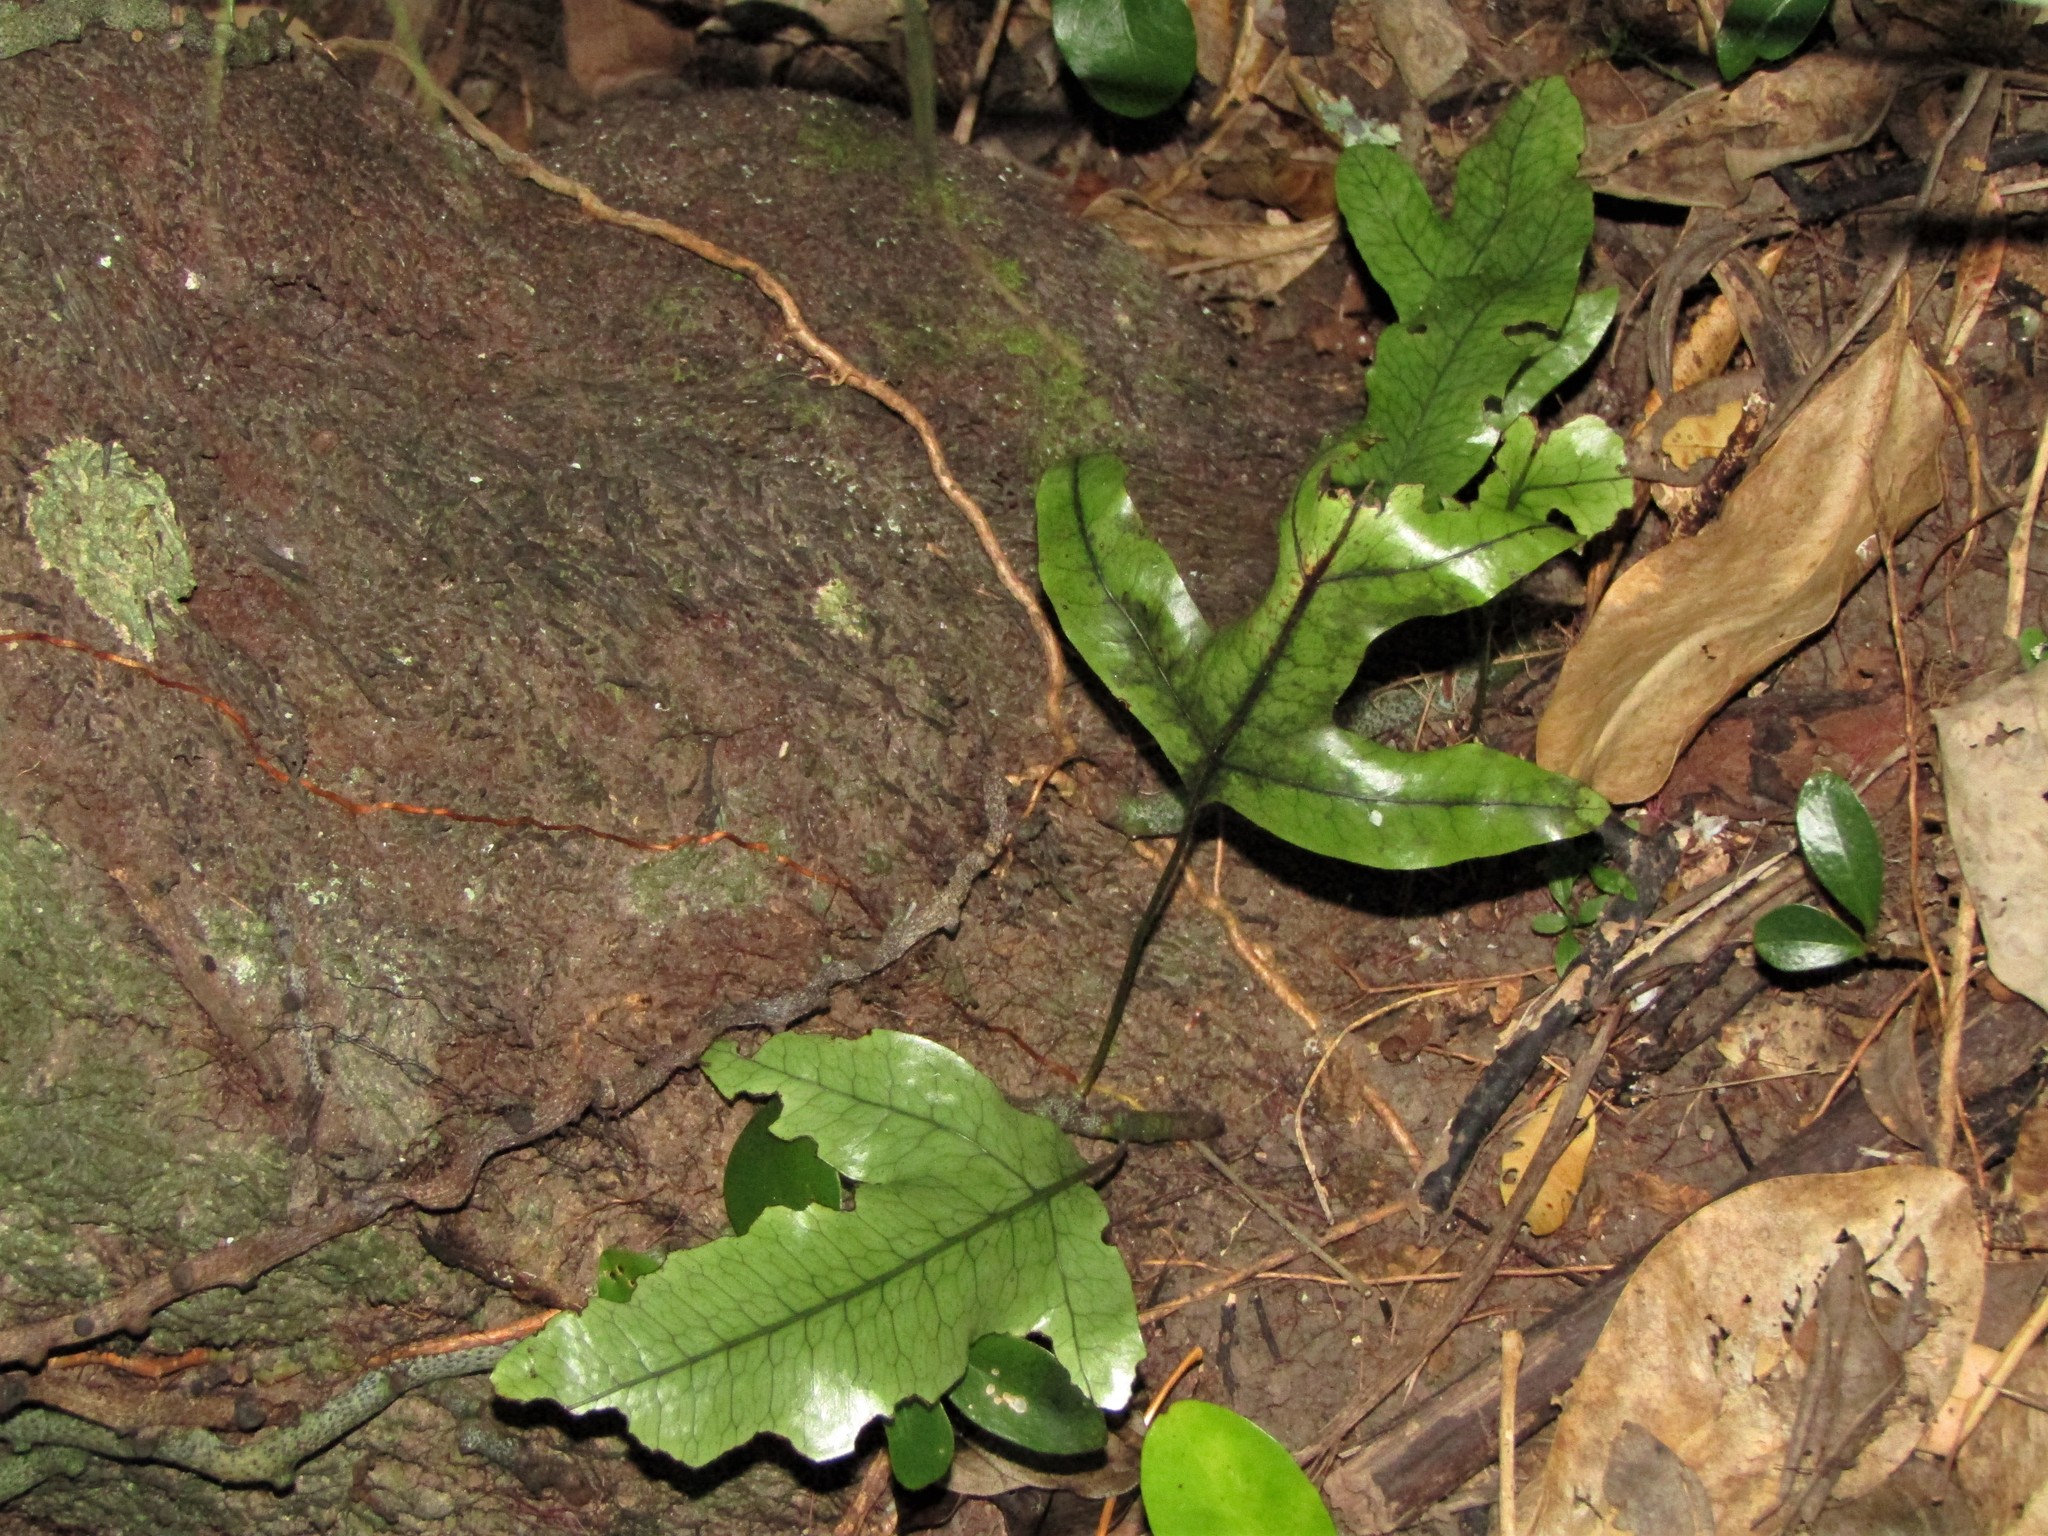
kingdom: Plantae
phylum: Tracheophyta
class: Polypodiopsida
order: Polypodiales
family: Polypodiaceae
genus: Lecanopteris
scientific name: Lecanopteris pustulata
